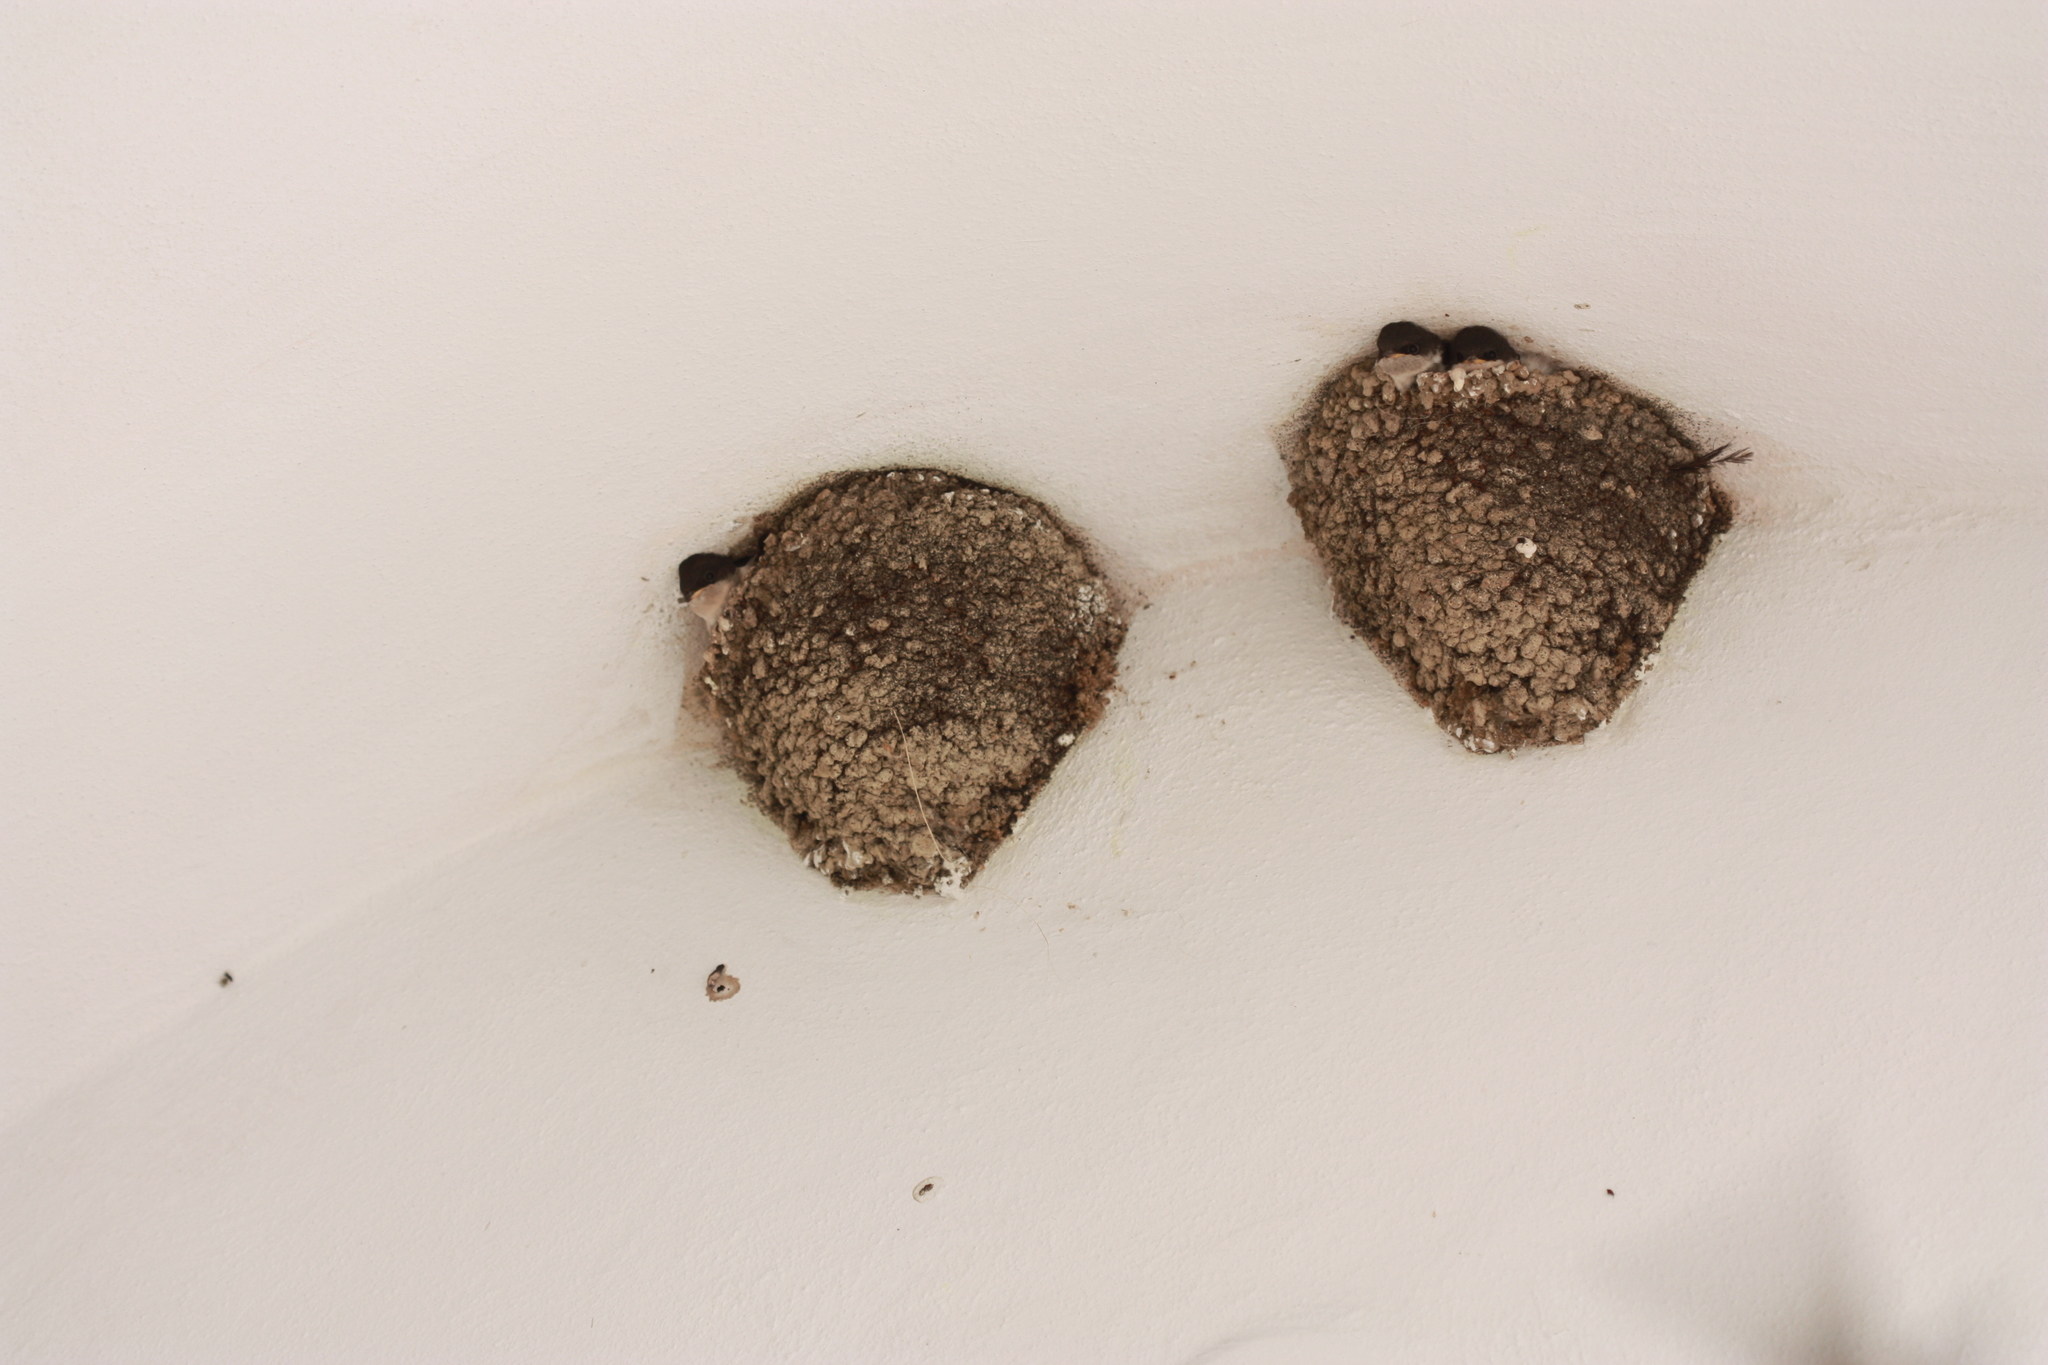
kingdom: Animalia
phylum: Chordata
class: Aves
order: Passeriformes
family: Hirundinidae
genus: Delichon
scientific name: Delichon urbicum
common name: Common house martin
